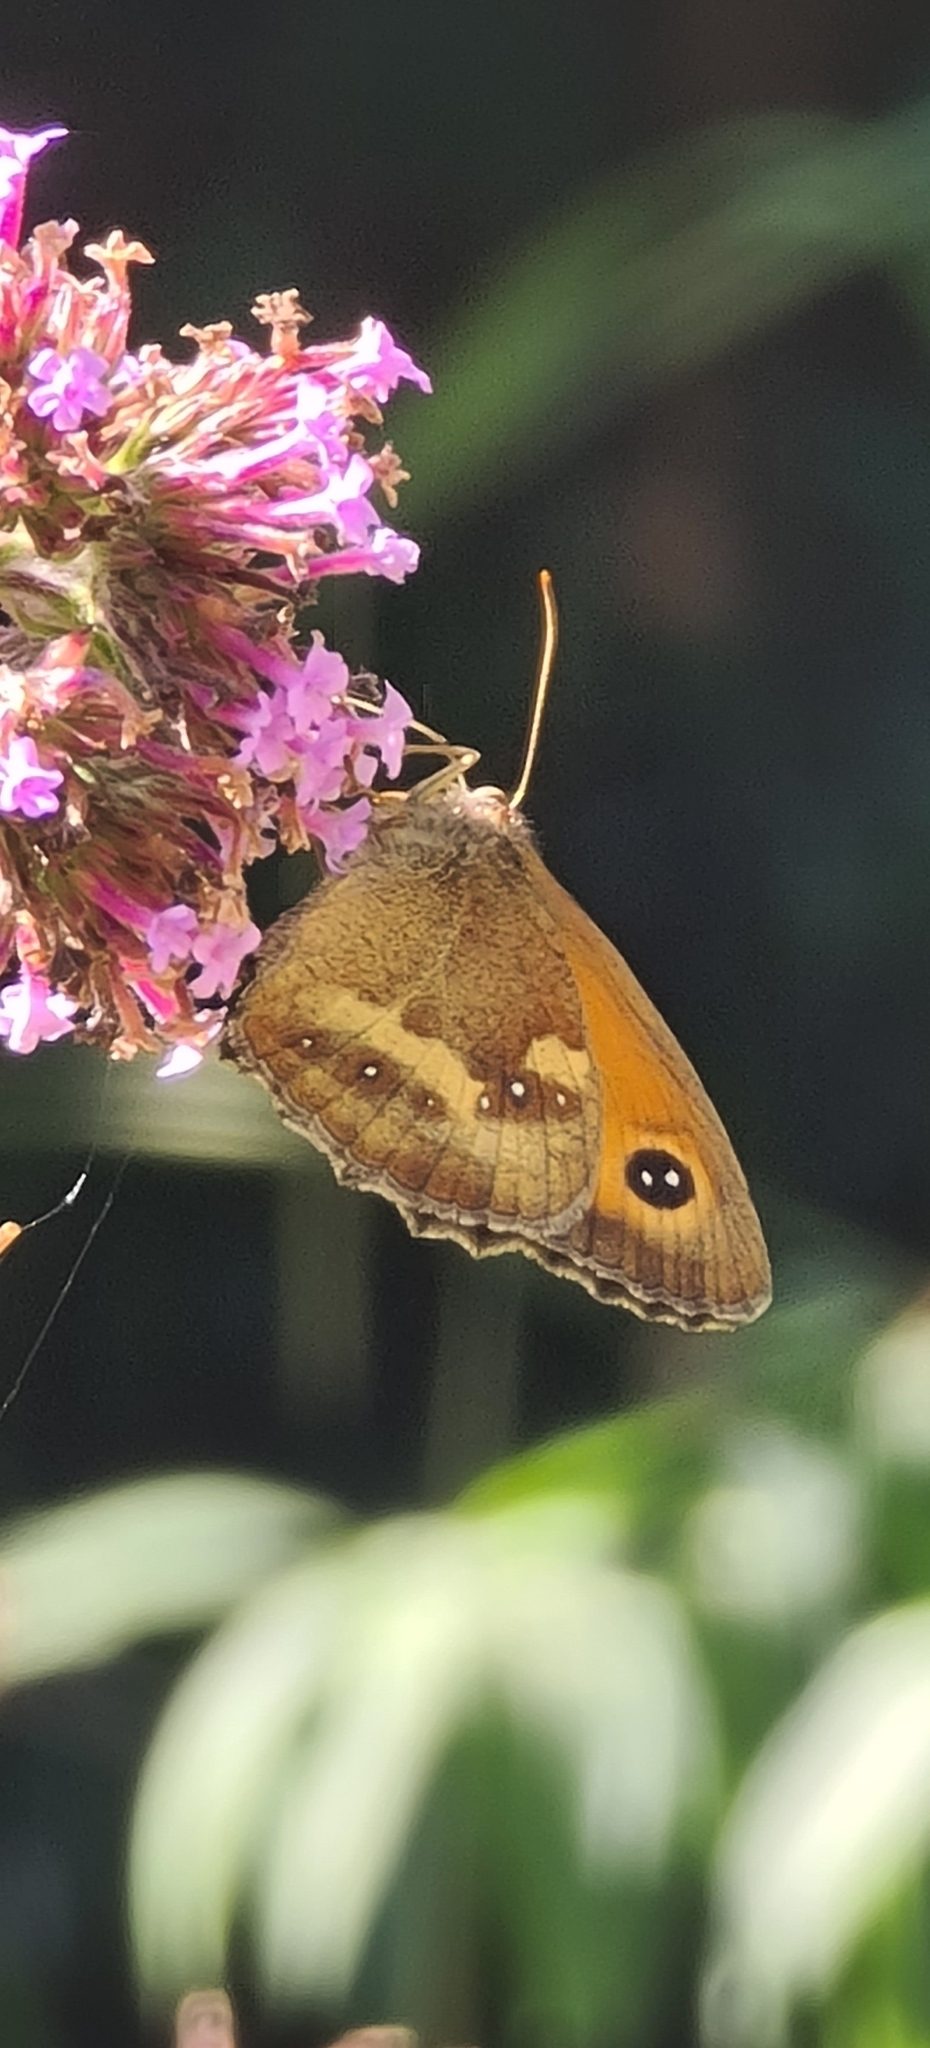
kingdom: Animalia
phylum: Arthropoda
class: Insecta
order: Lepidoptera
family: Nymphalidae
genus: Pyronia
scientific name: Pyronia tithonus
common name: Gatekeeper
